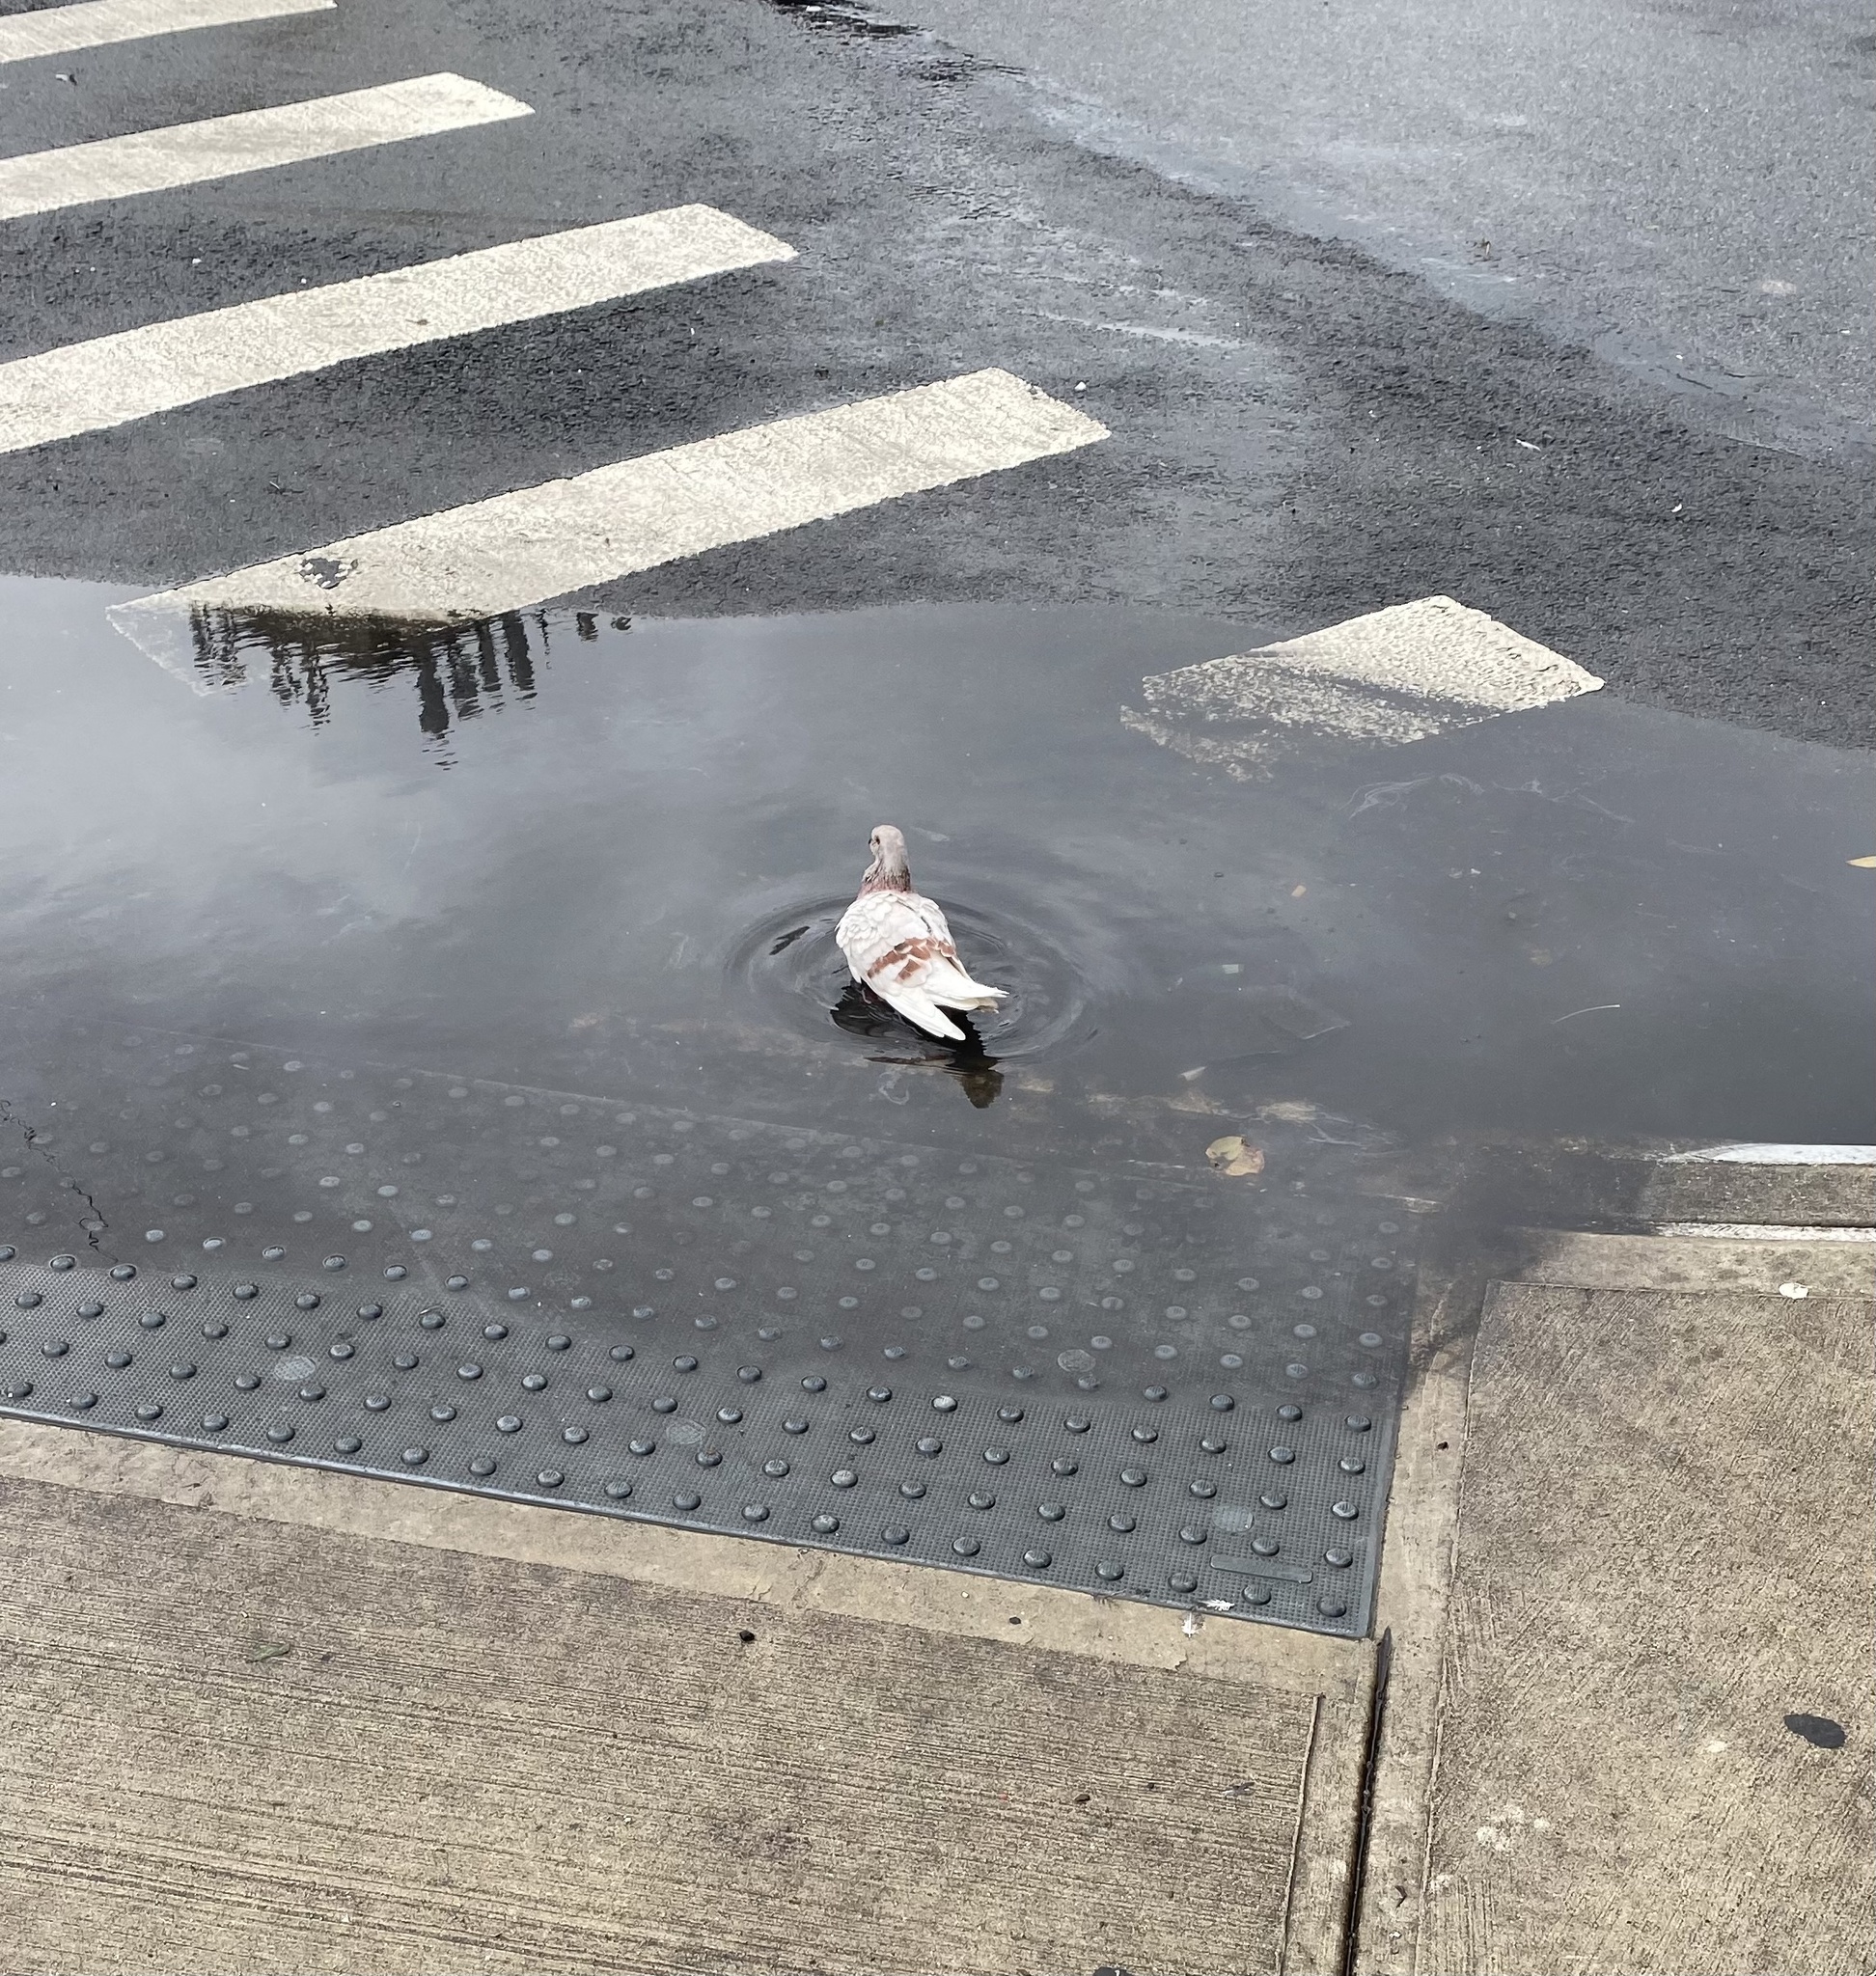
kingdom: Animalia
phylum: Chordata
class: Aves
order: Columbiformes
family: Columbidae
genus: Columba
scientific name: Columba livia
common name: Rock pigeon
